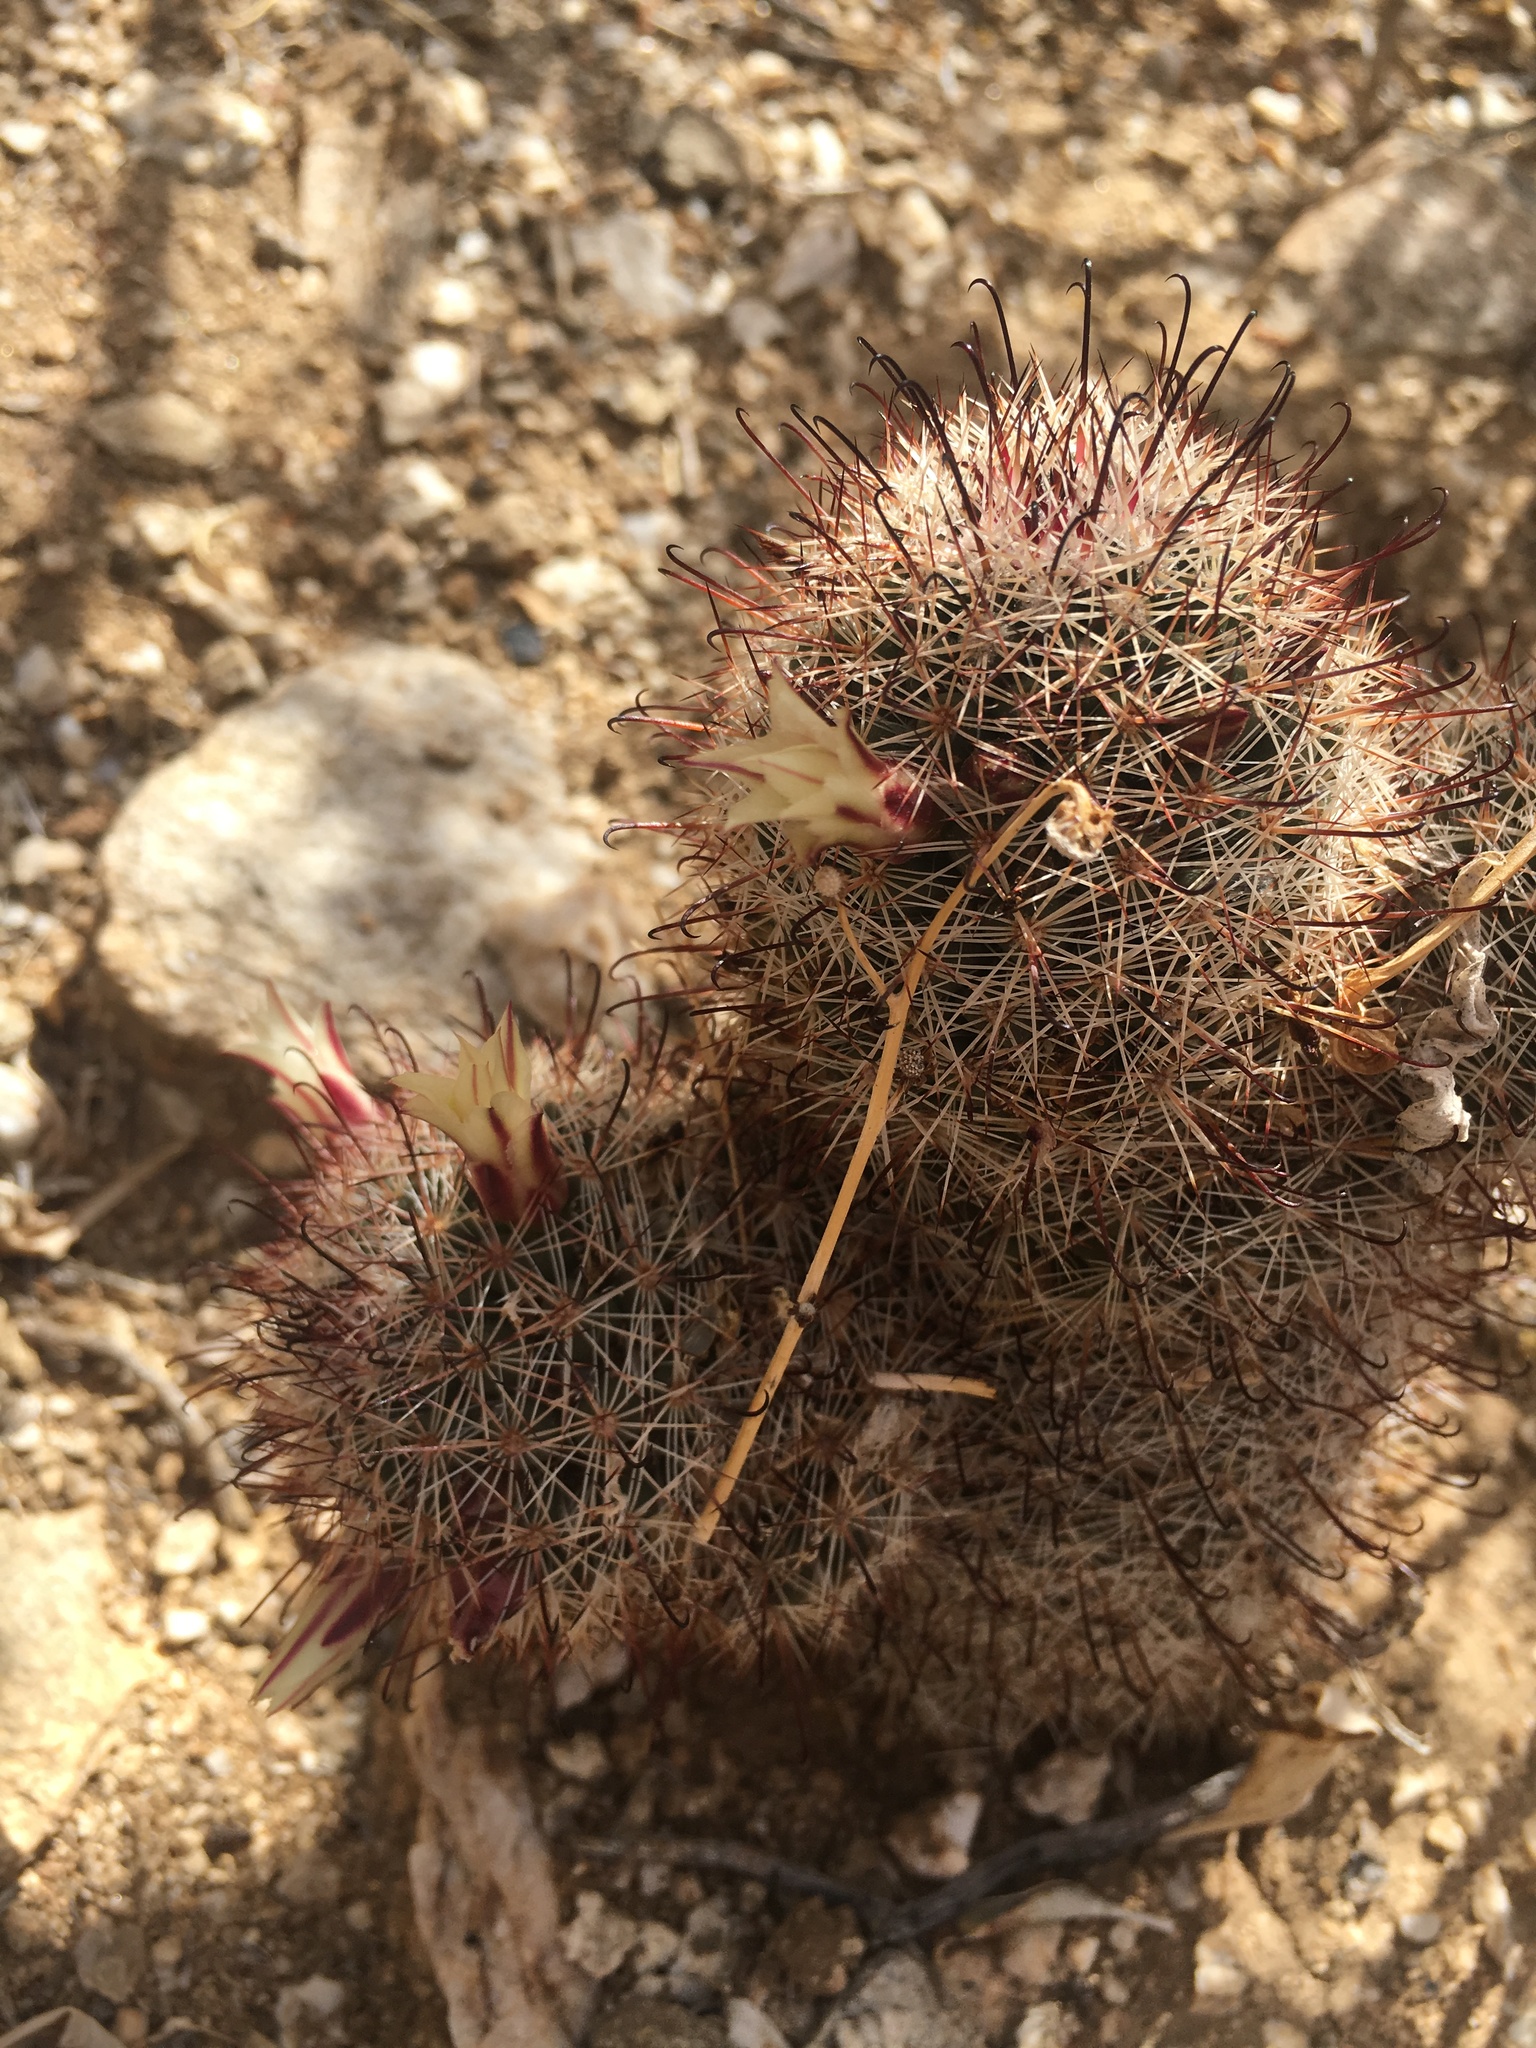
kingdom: Plantae
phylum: Tracheophyta
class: Magnoliopsida
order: Caryophyllales
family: Cactaceae
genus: Cochemiea
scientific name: Cochemiea dioica
